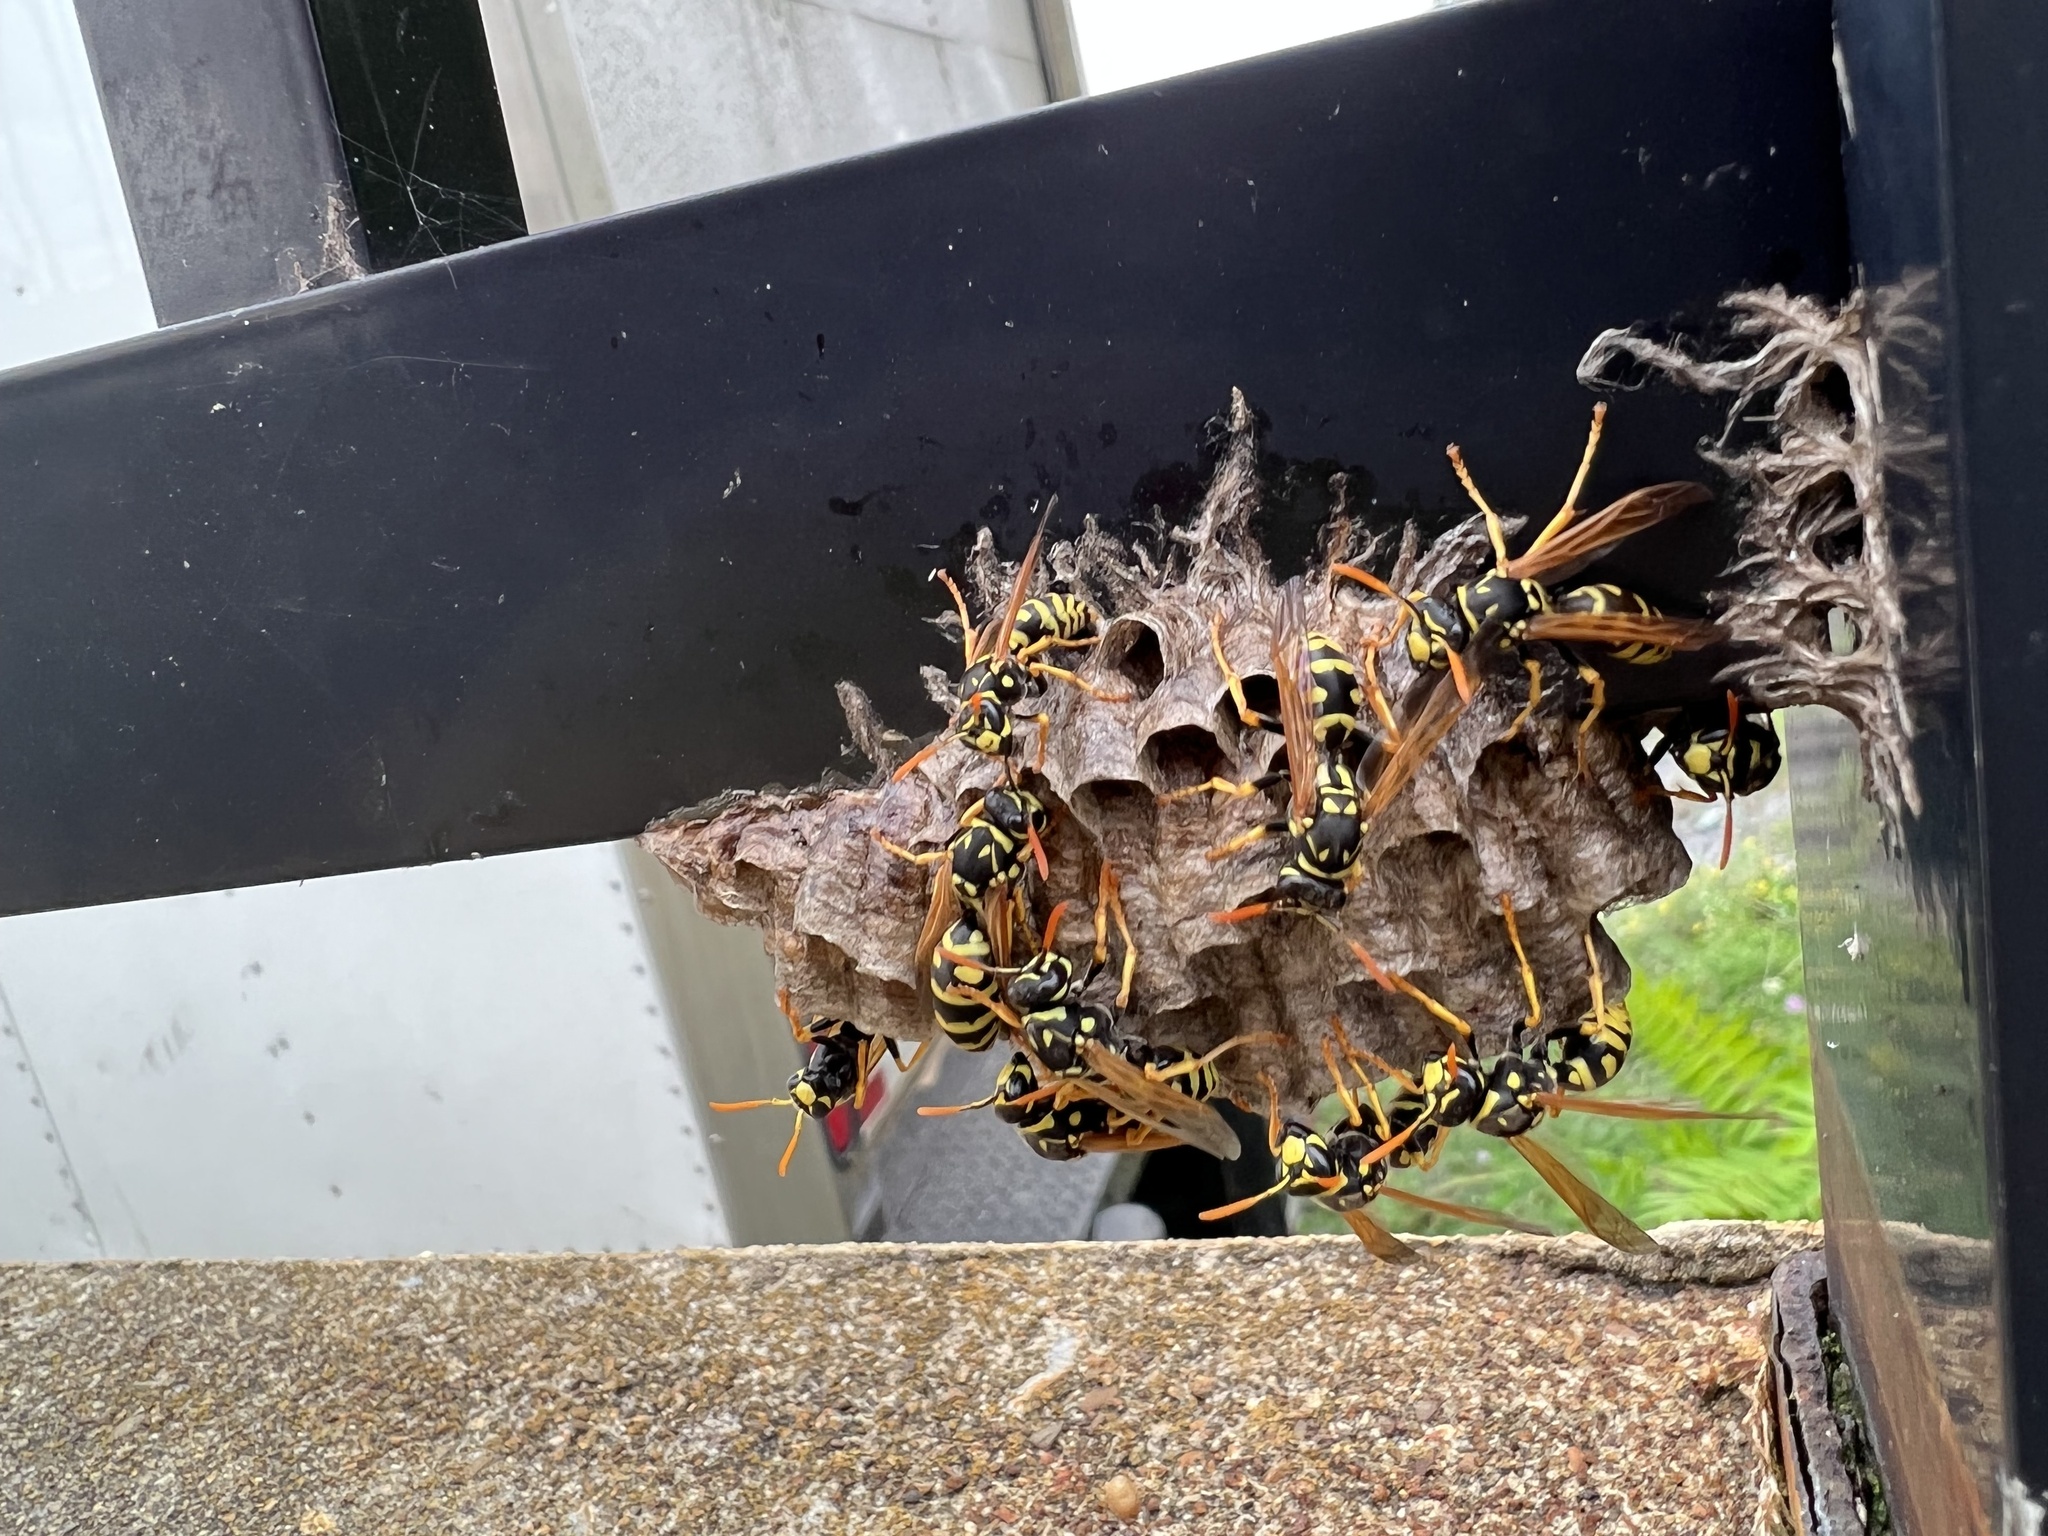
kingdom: Animalia
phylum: Arthropoda
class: Insecta
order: Hymenoptera
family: Eumenidae
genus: Polistes
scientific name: Polistes dominula
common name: Paper wasp
